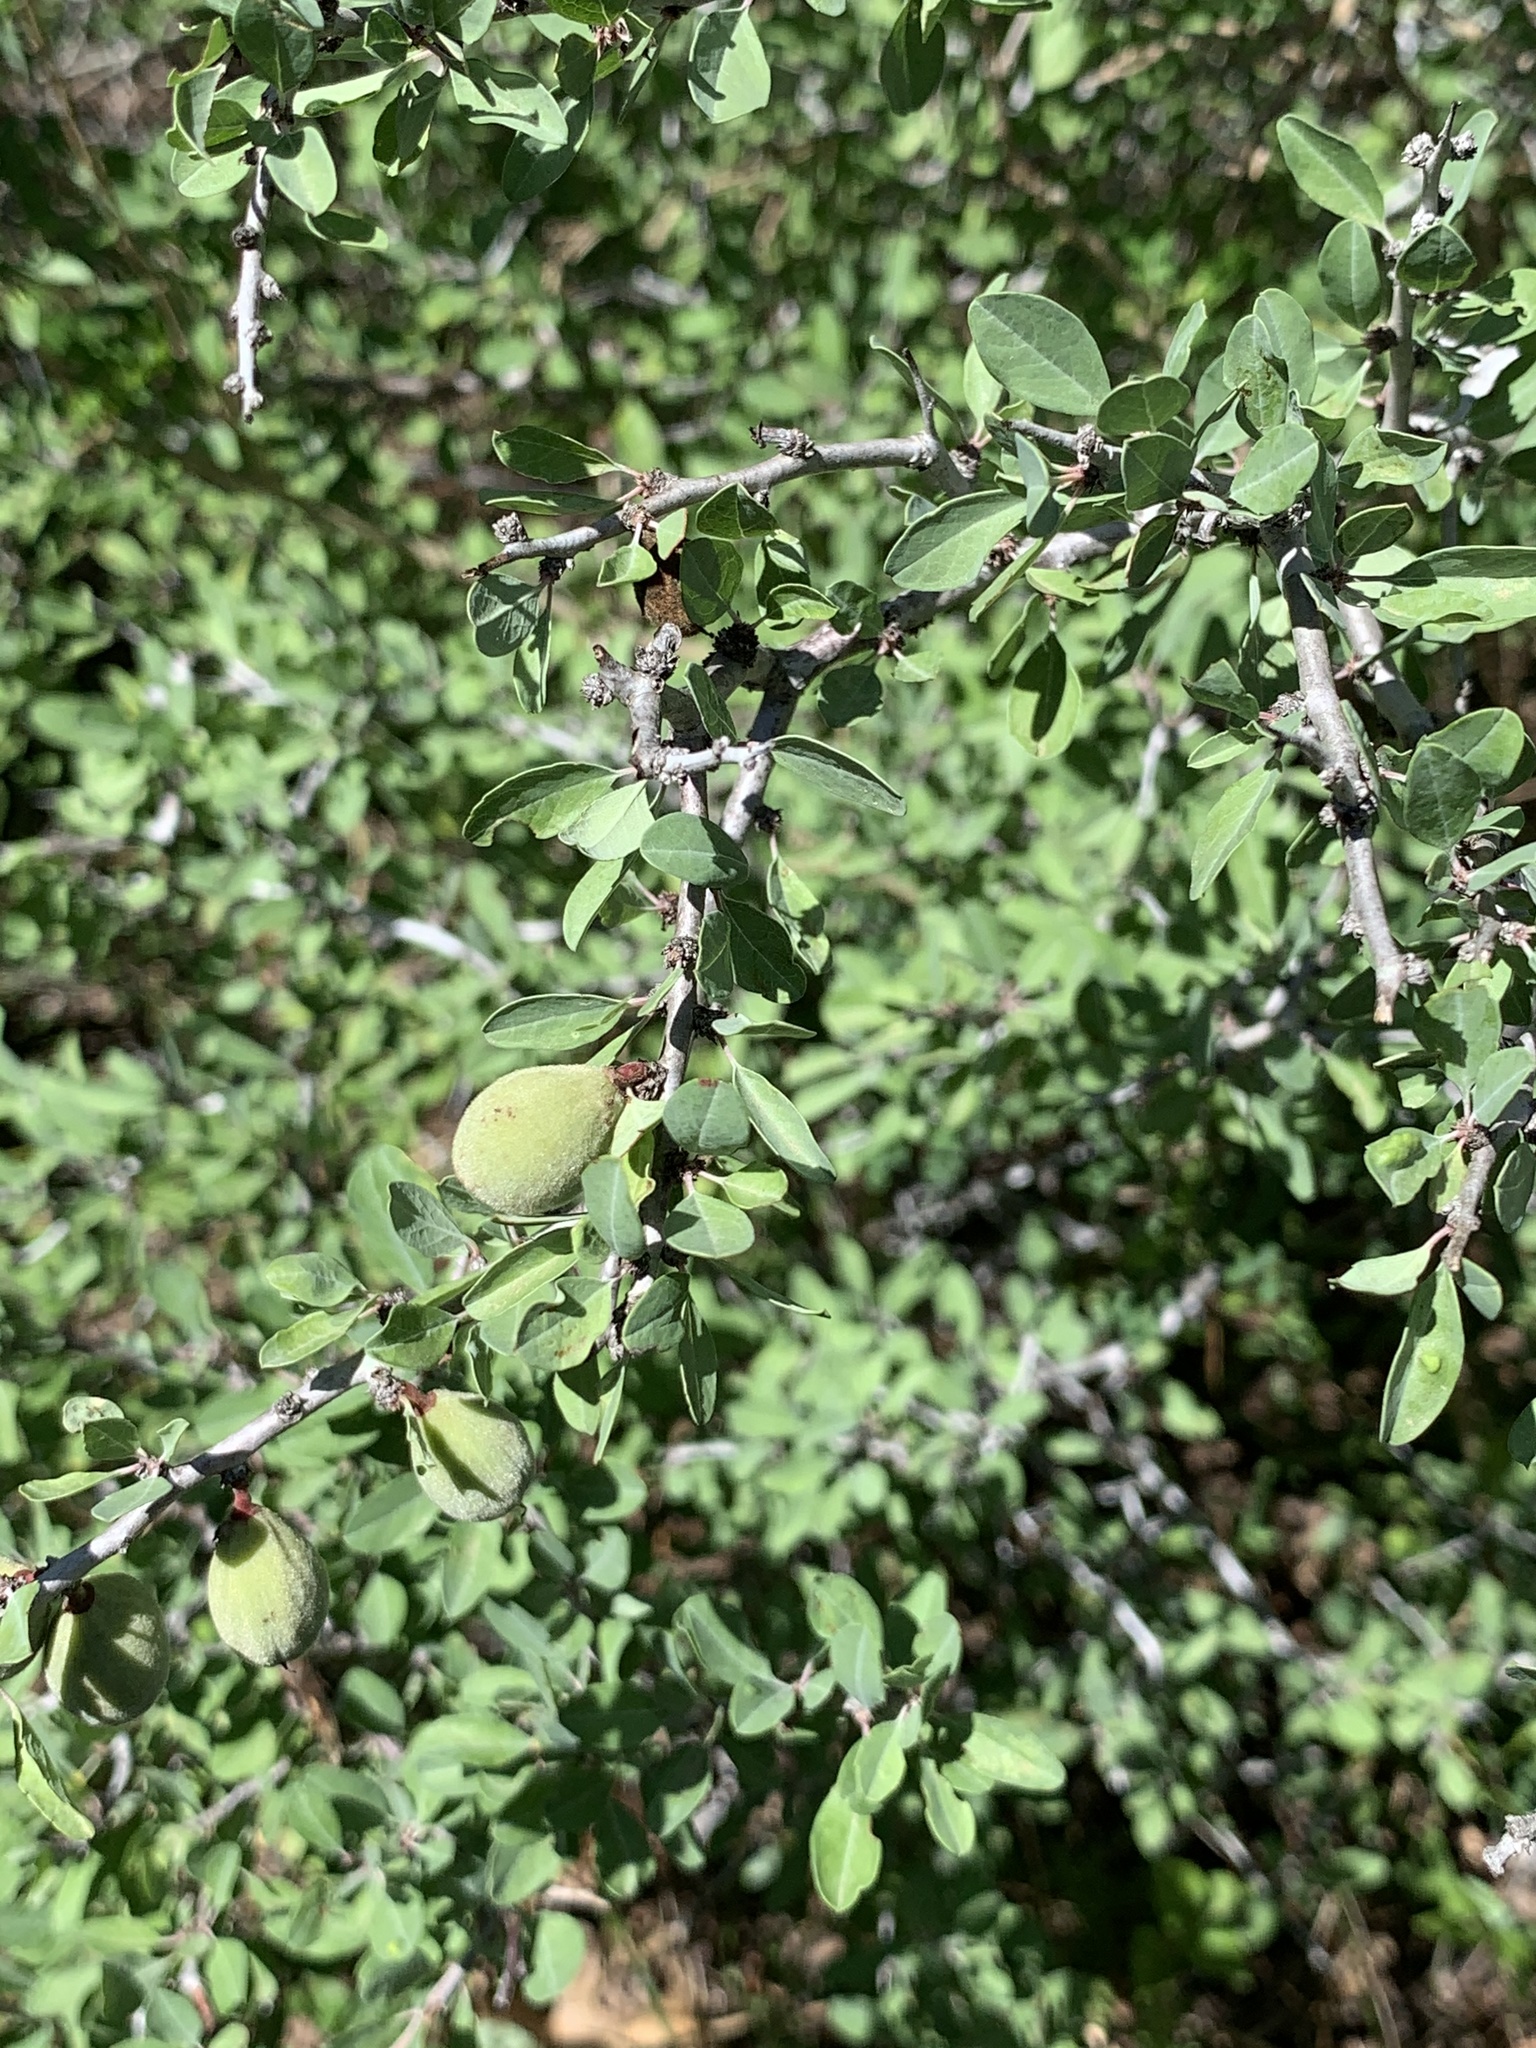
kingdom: Plantae
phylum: Tracheophyta
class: Magnoliopsida
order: Rosales
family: Rosaceae
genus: Prunus
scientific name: Prunus minutiflora
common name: Texas almond
